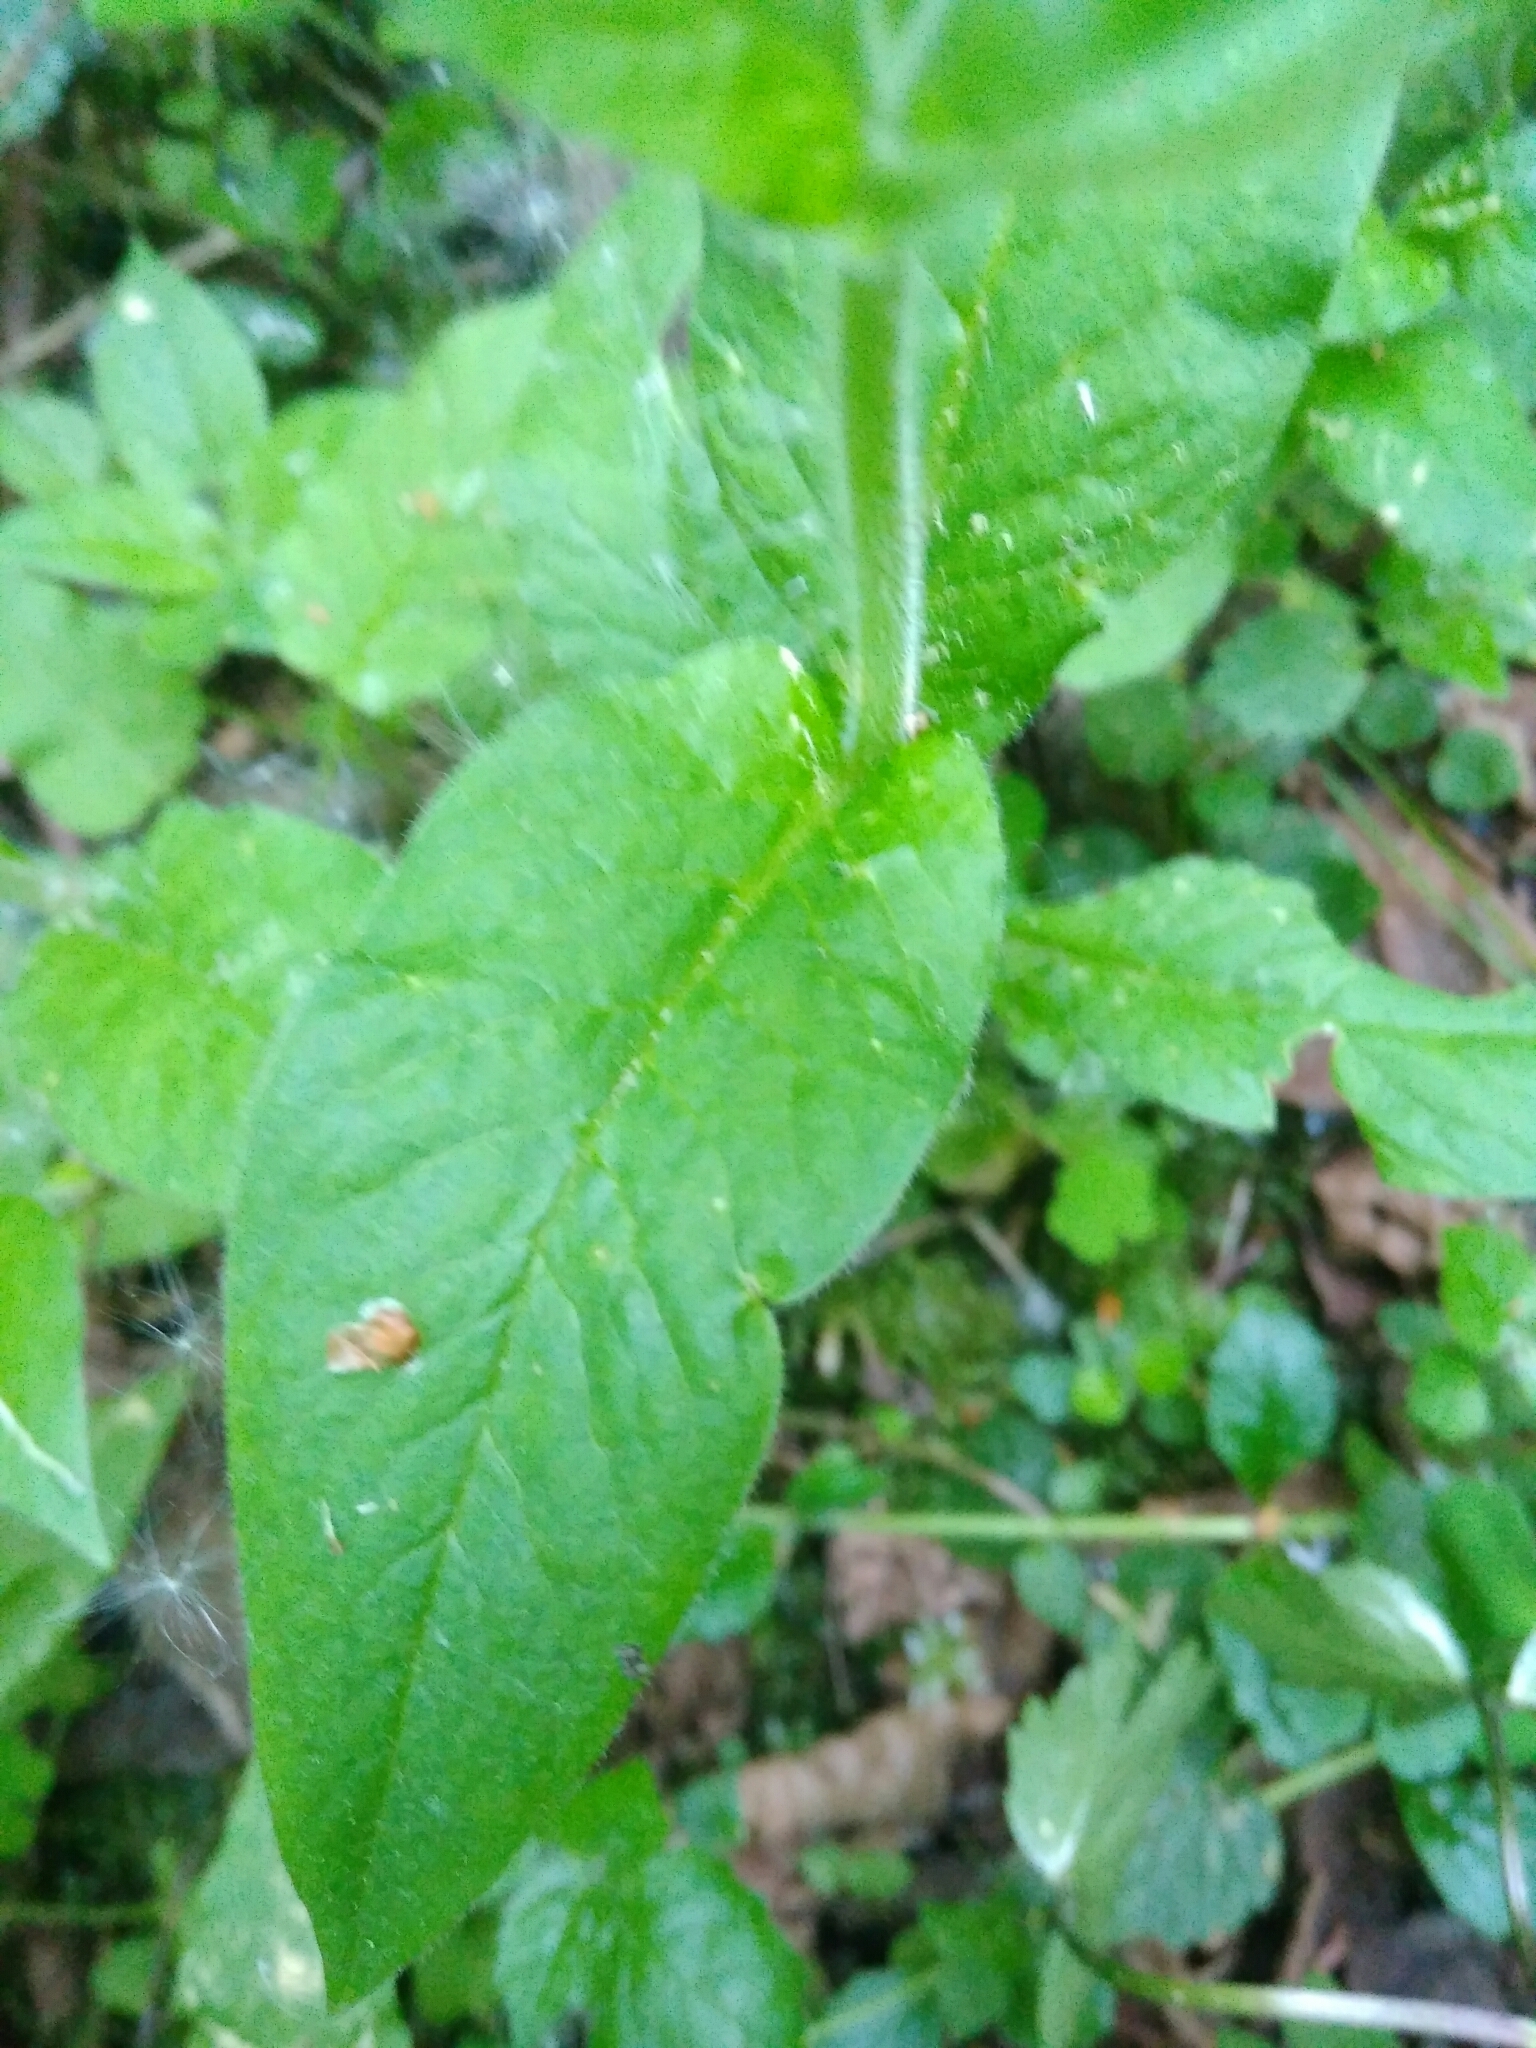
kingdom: Plantae
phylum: Tracheophyta
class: Magnoliopsida
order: Caryophyllales
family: Caryophyllaceae
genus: Stellaria
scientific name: Stellaria nemorum
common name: Wood stitchwort
